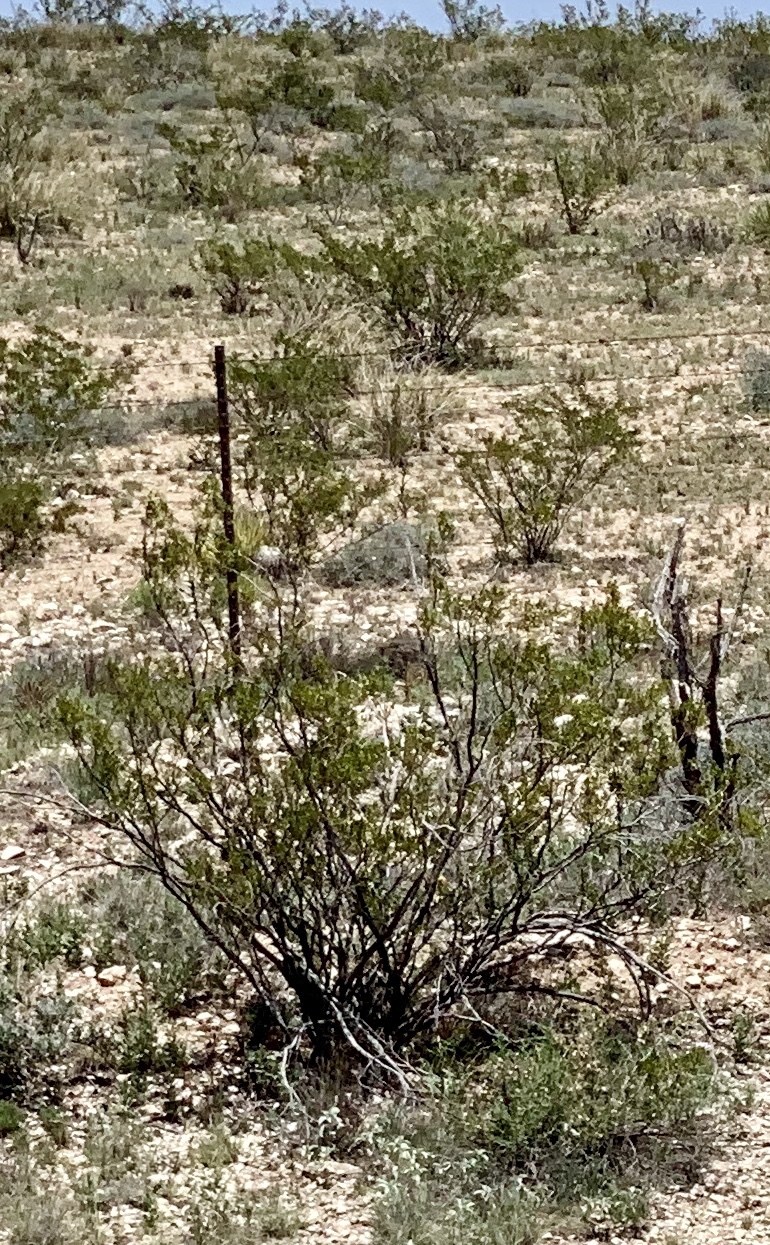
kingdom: Plantae
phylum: Tracheophyta
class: Magnoliopsida
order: Zygophyllales
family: Zygophyllaceae
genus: Larrea
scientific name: Larrea tridentata
